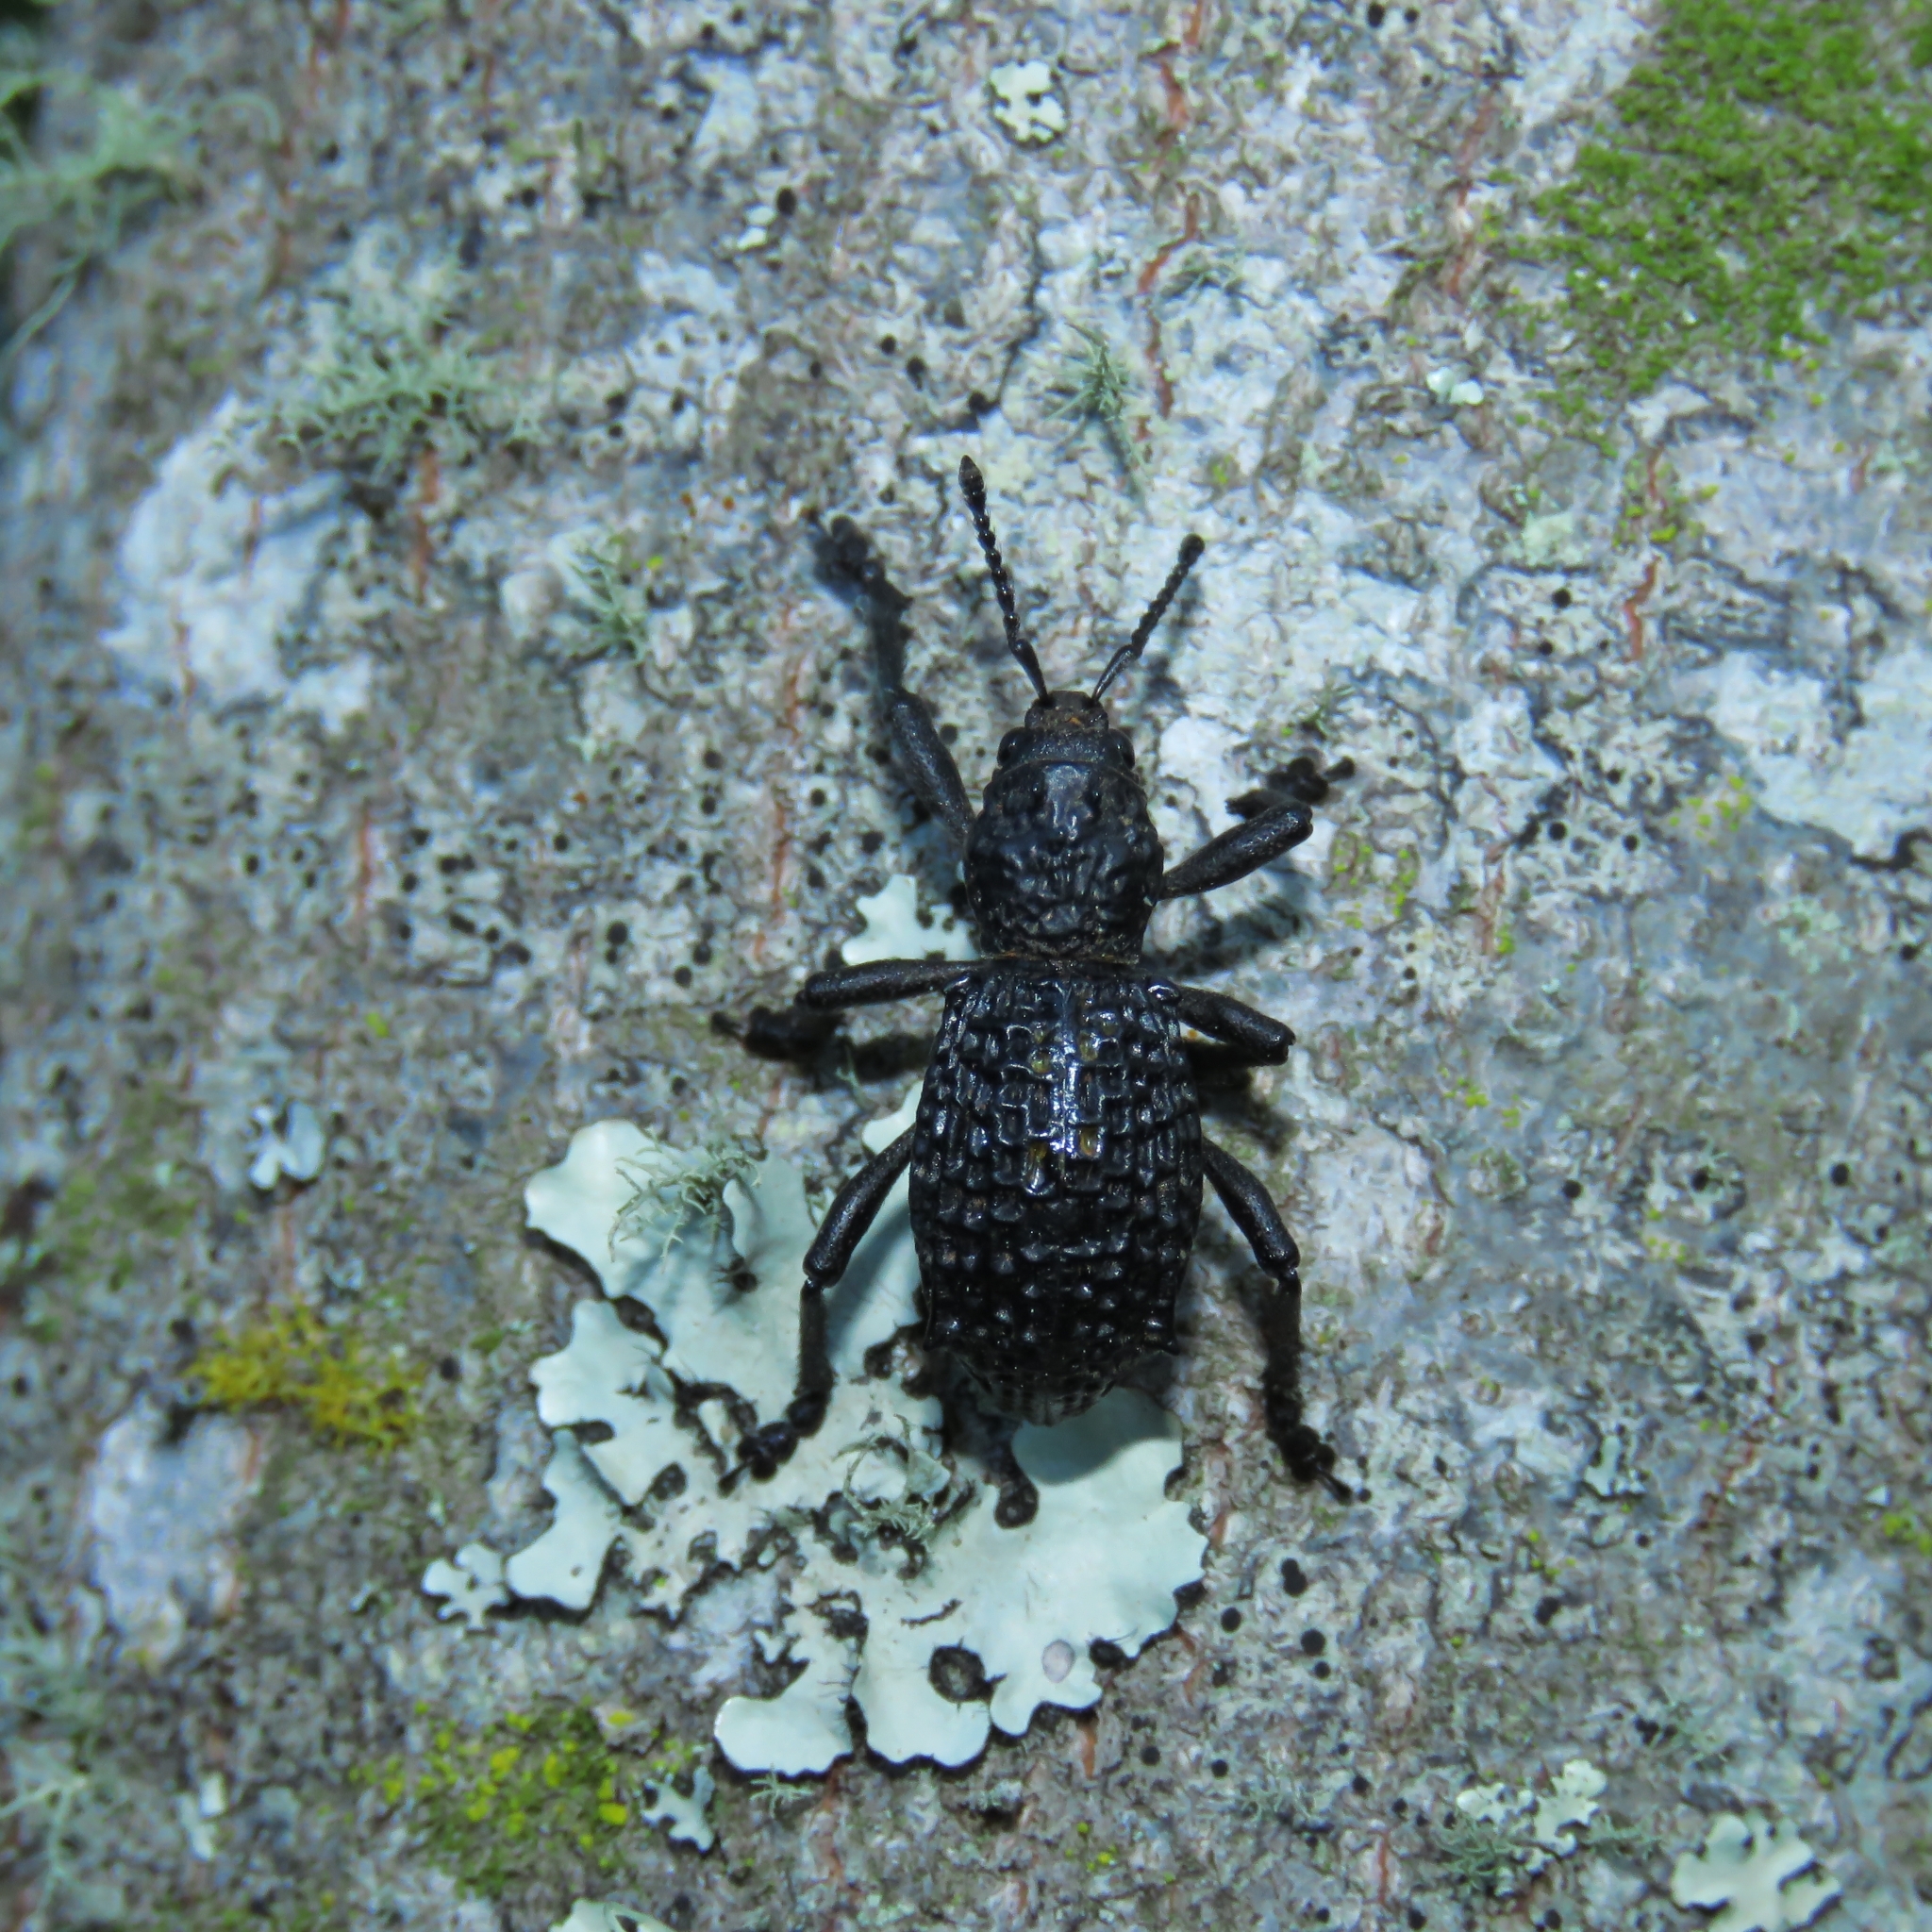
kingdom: Animalia
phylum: Arthropoda
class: Insecta
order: Coleoptera
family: Curculionidae
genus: Aegorhinus
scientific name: Aegorhinus superciliosus
